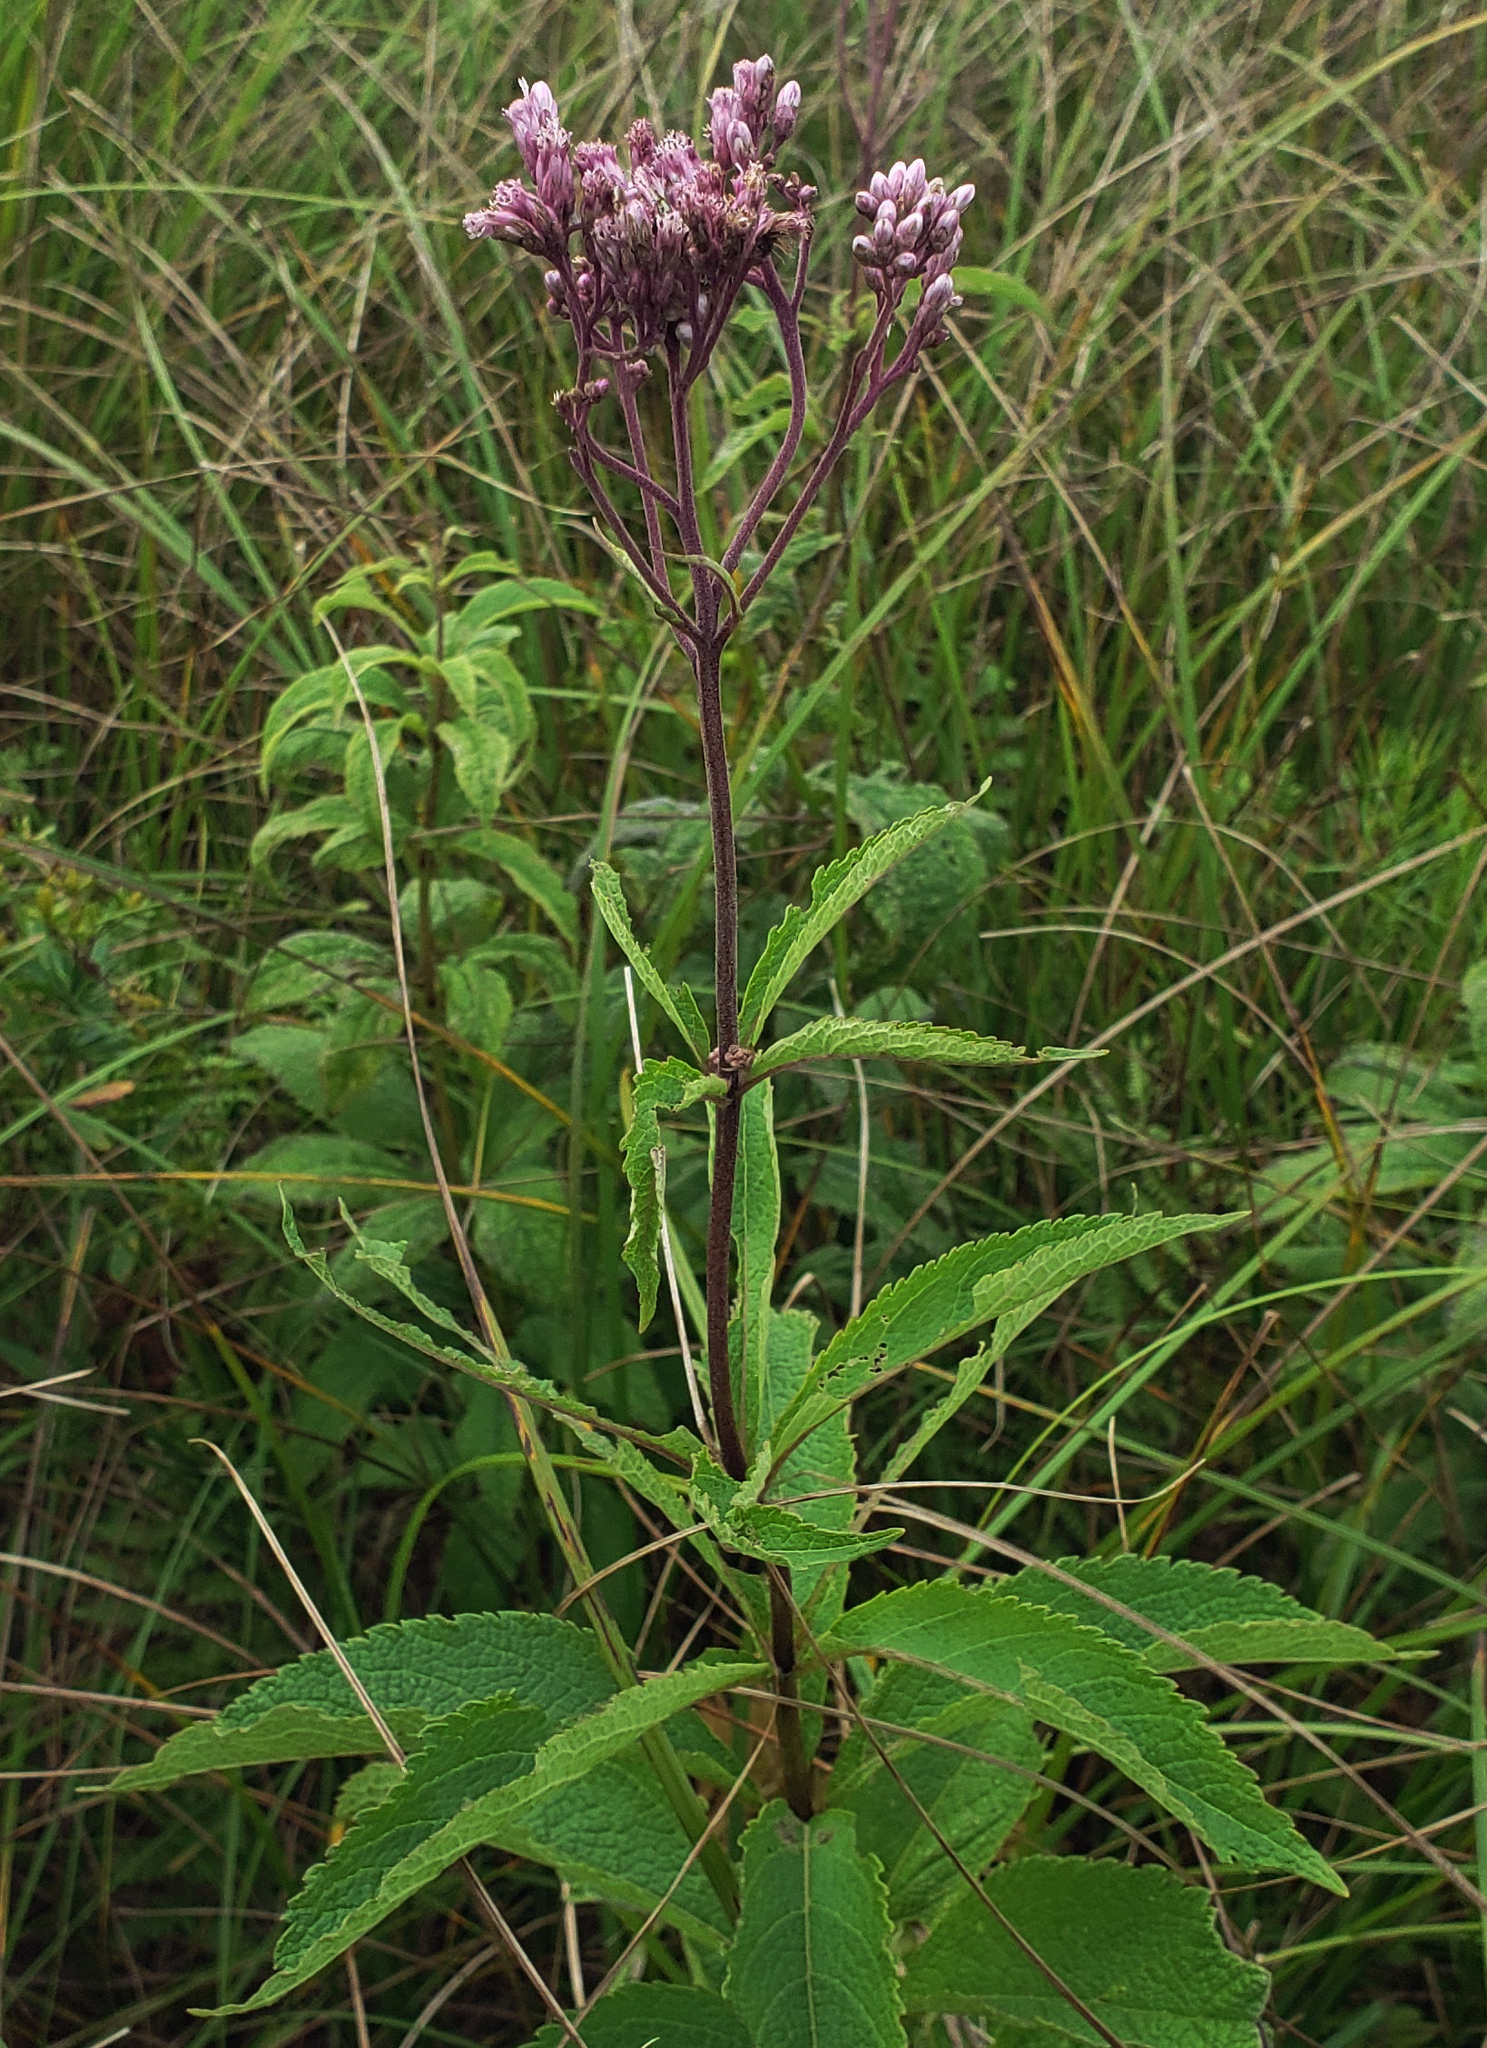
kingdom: Plantae
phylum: Tracheophyta
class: Magnoliopsida
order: Asterales
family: Asteraceae
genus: Eutrochium
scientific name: Eutrochium maculatum
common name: Spotted joe pye weed
